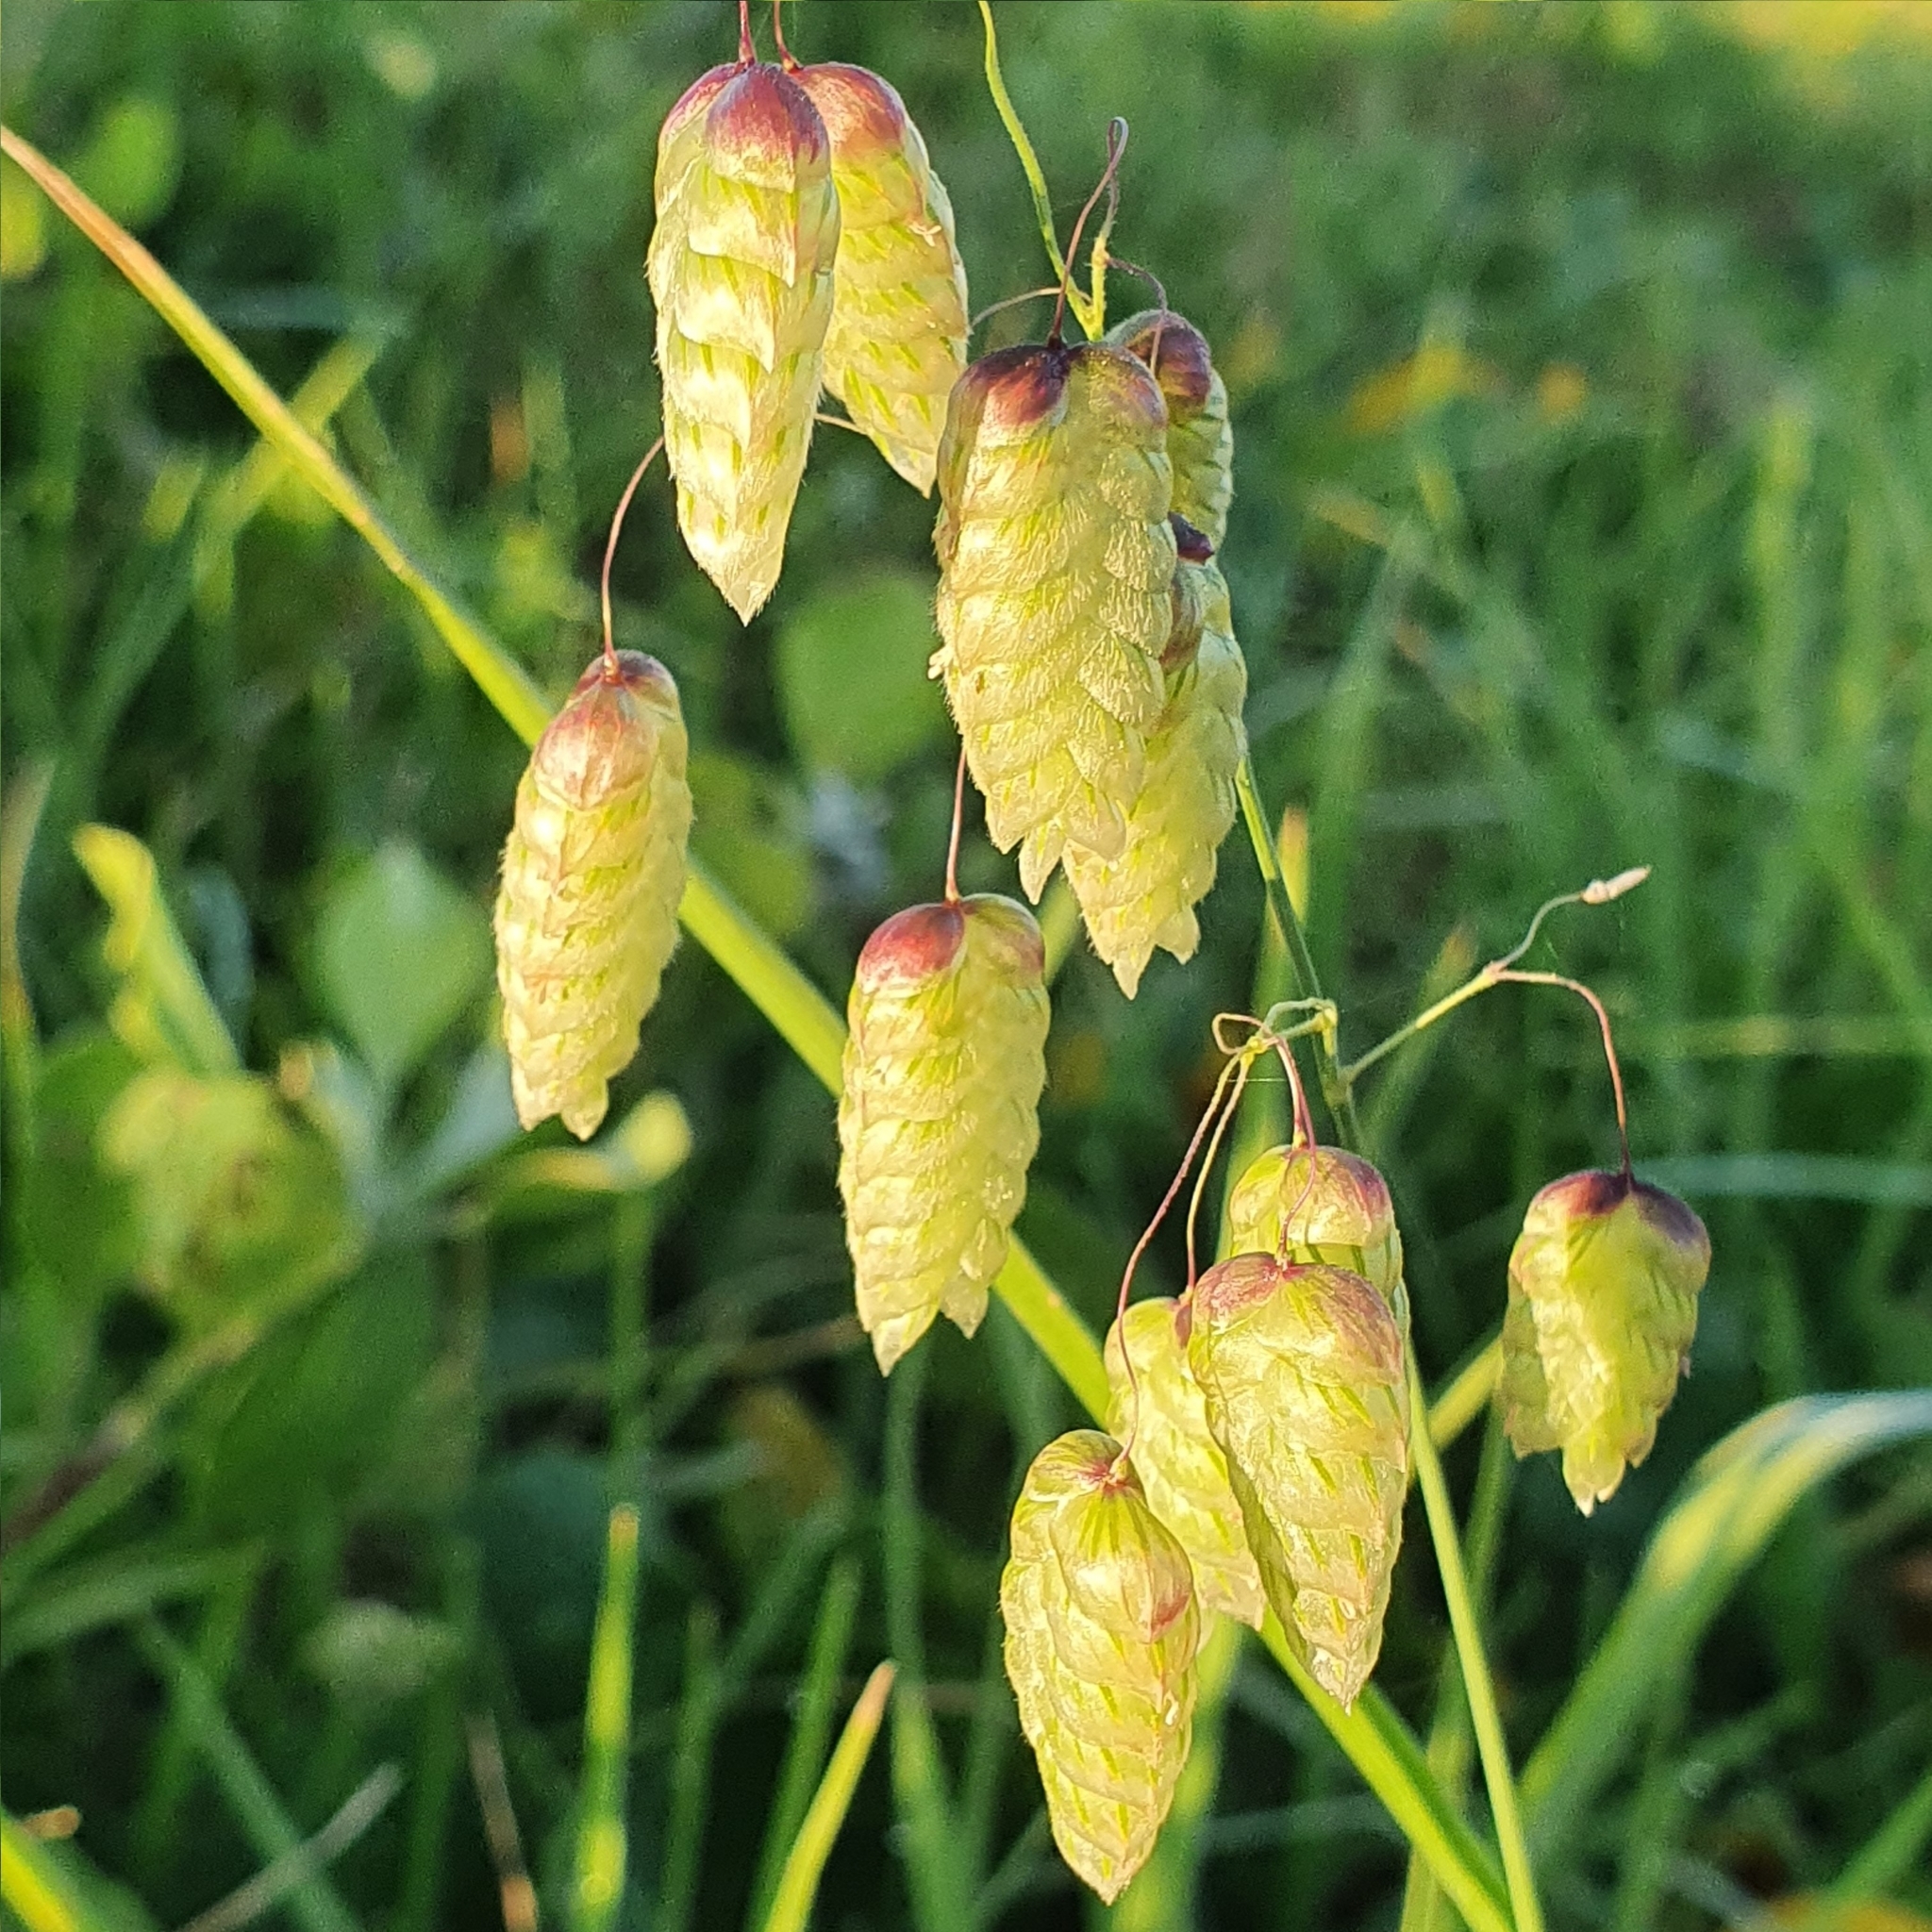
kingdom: Plantae
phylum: Tracheophyta
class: Liliopsida
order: Poales
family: Poaceae
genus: Briza
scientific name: Briza maxima
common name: Big quakinggrass
